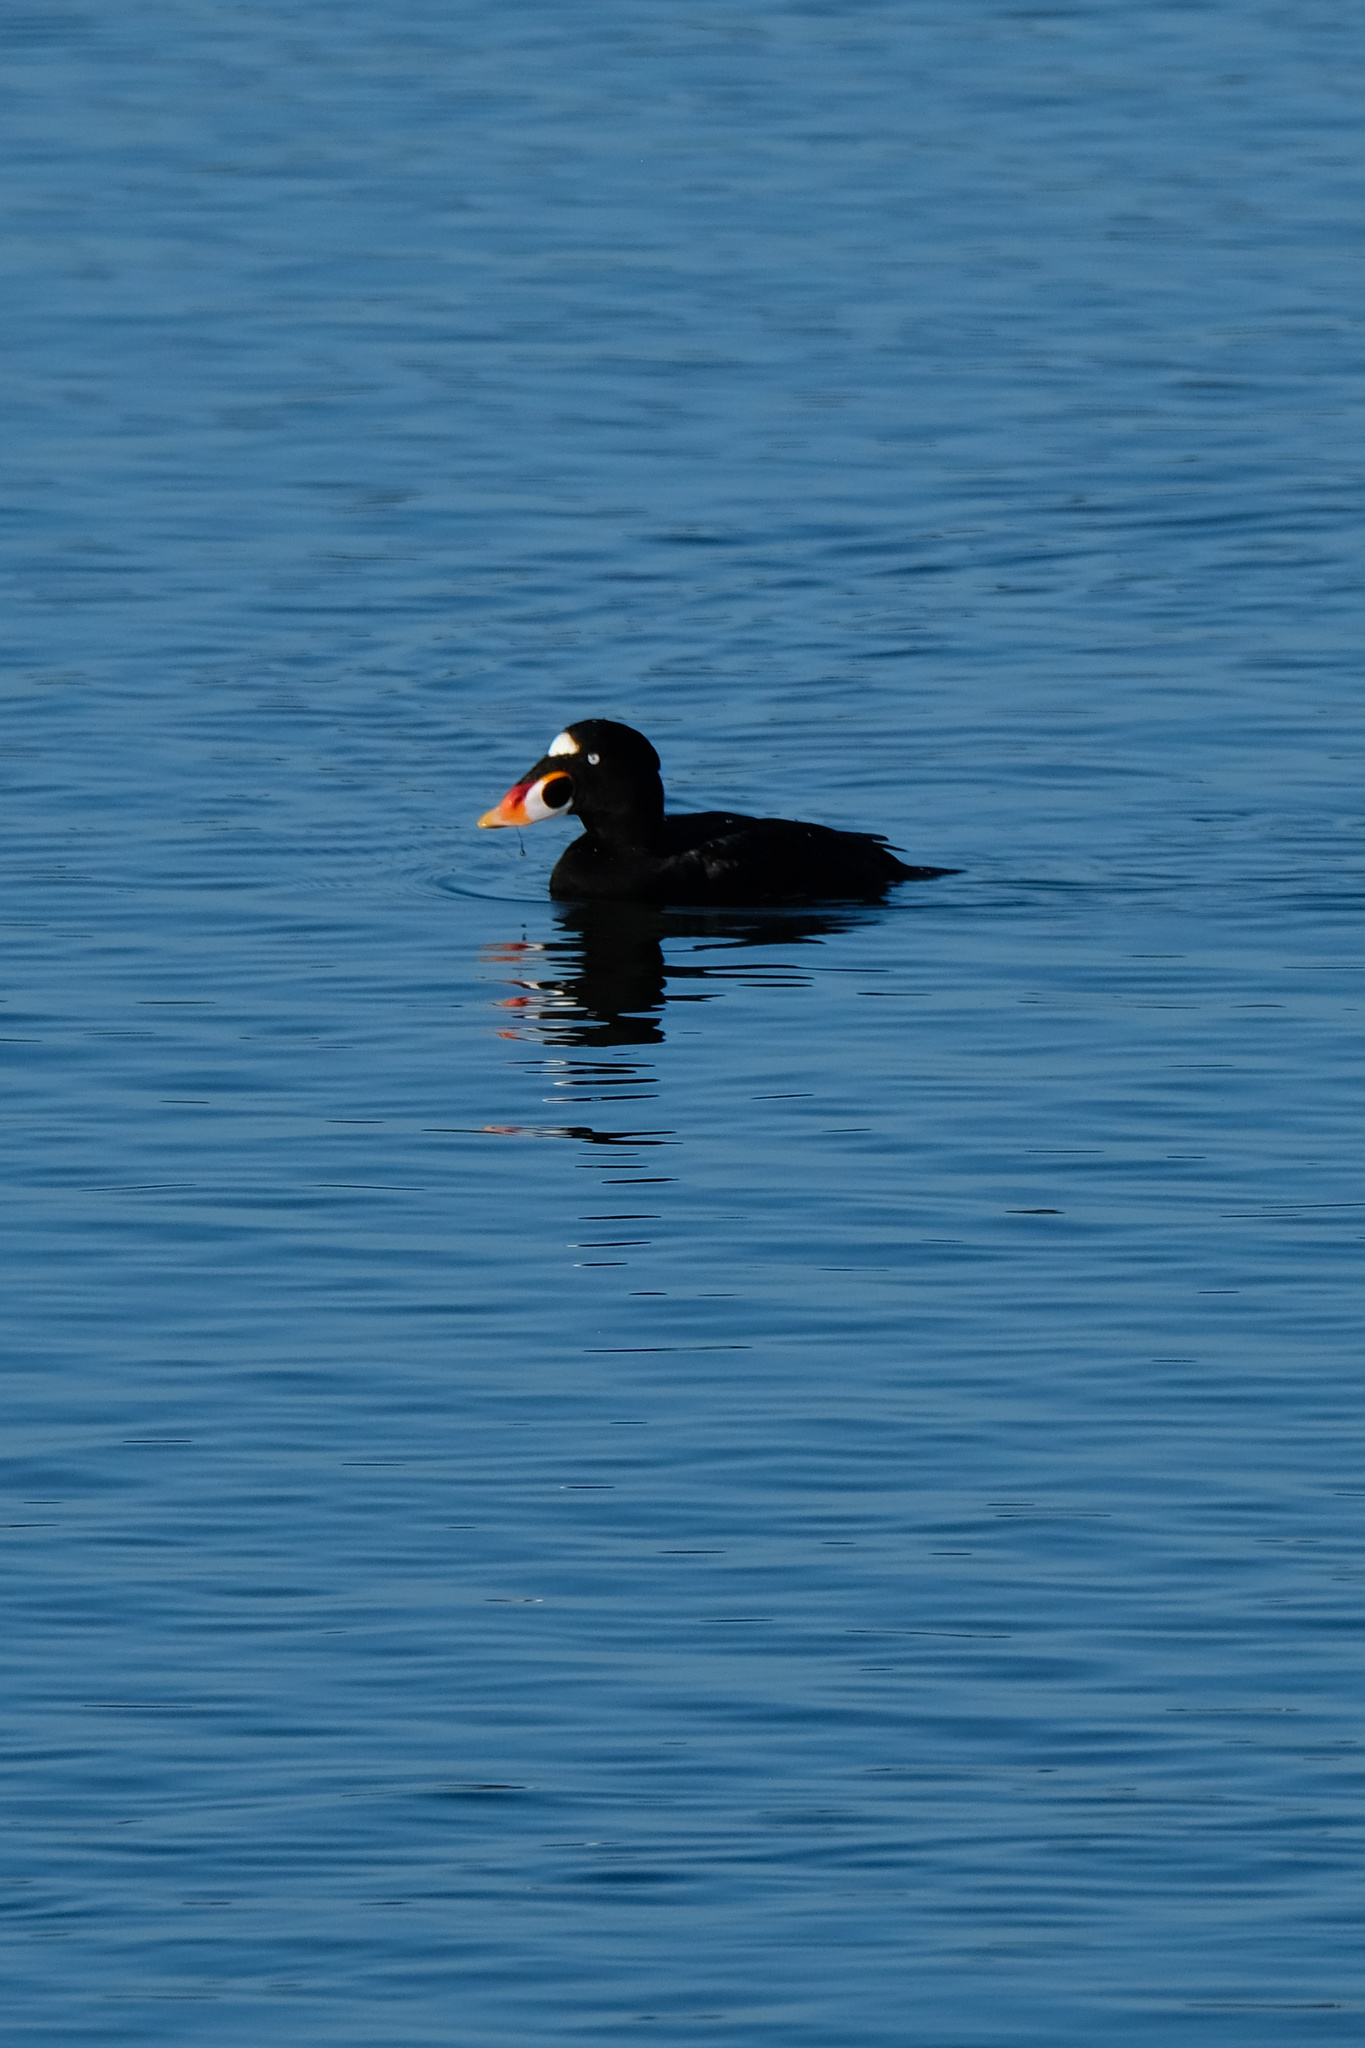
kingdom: Animalia
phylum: Chordata
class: Aves
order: Anseriformes
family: Anatidae
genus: Melanitta
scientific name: Melanitta perspicillata
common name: Surf scoter
